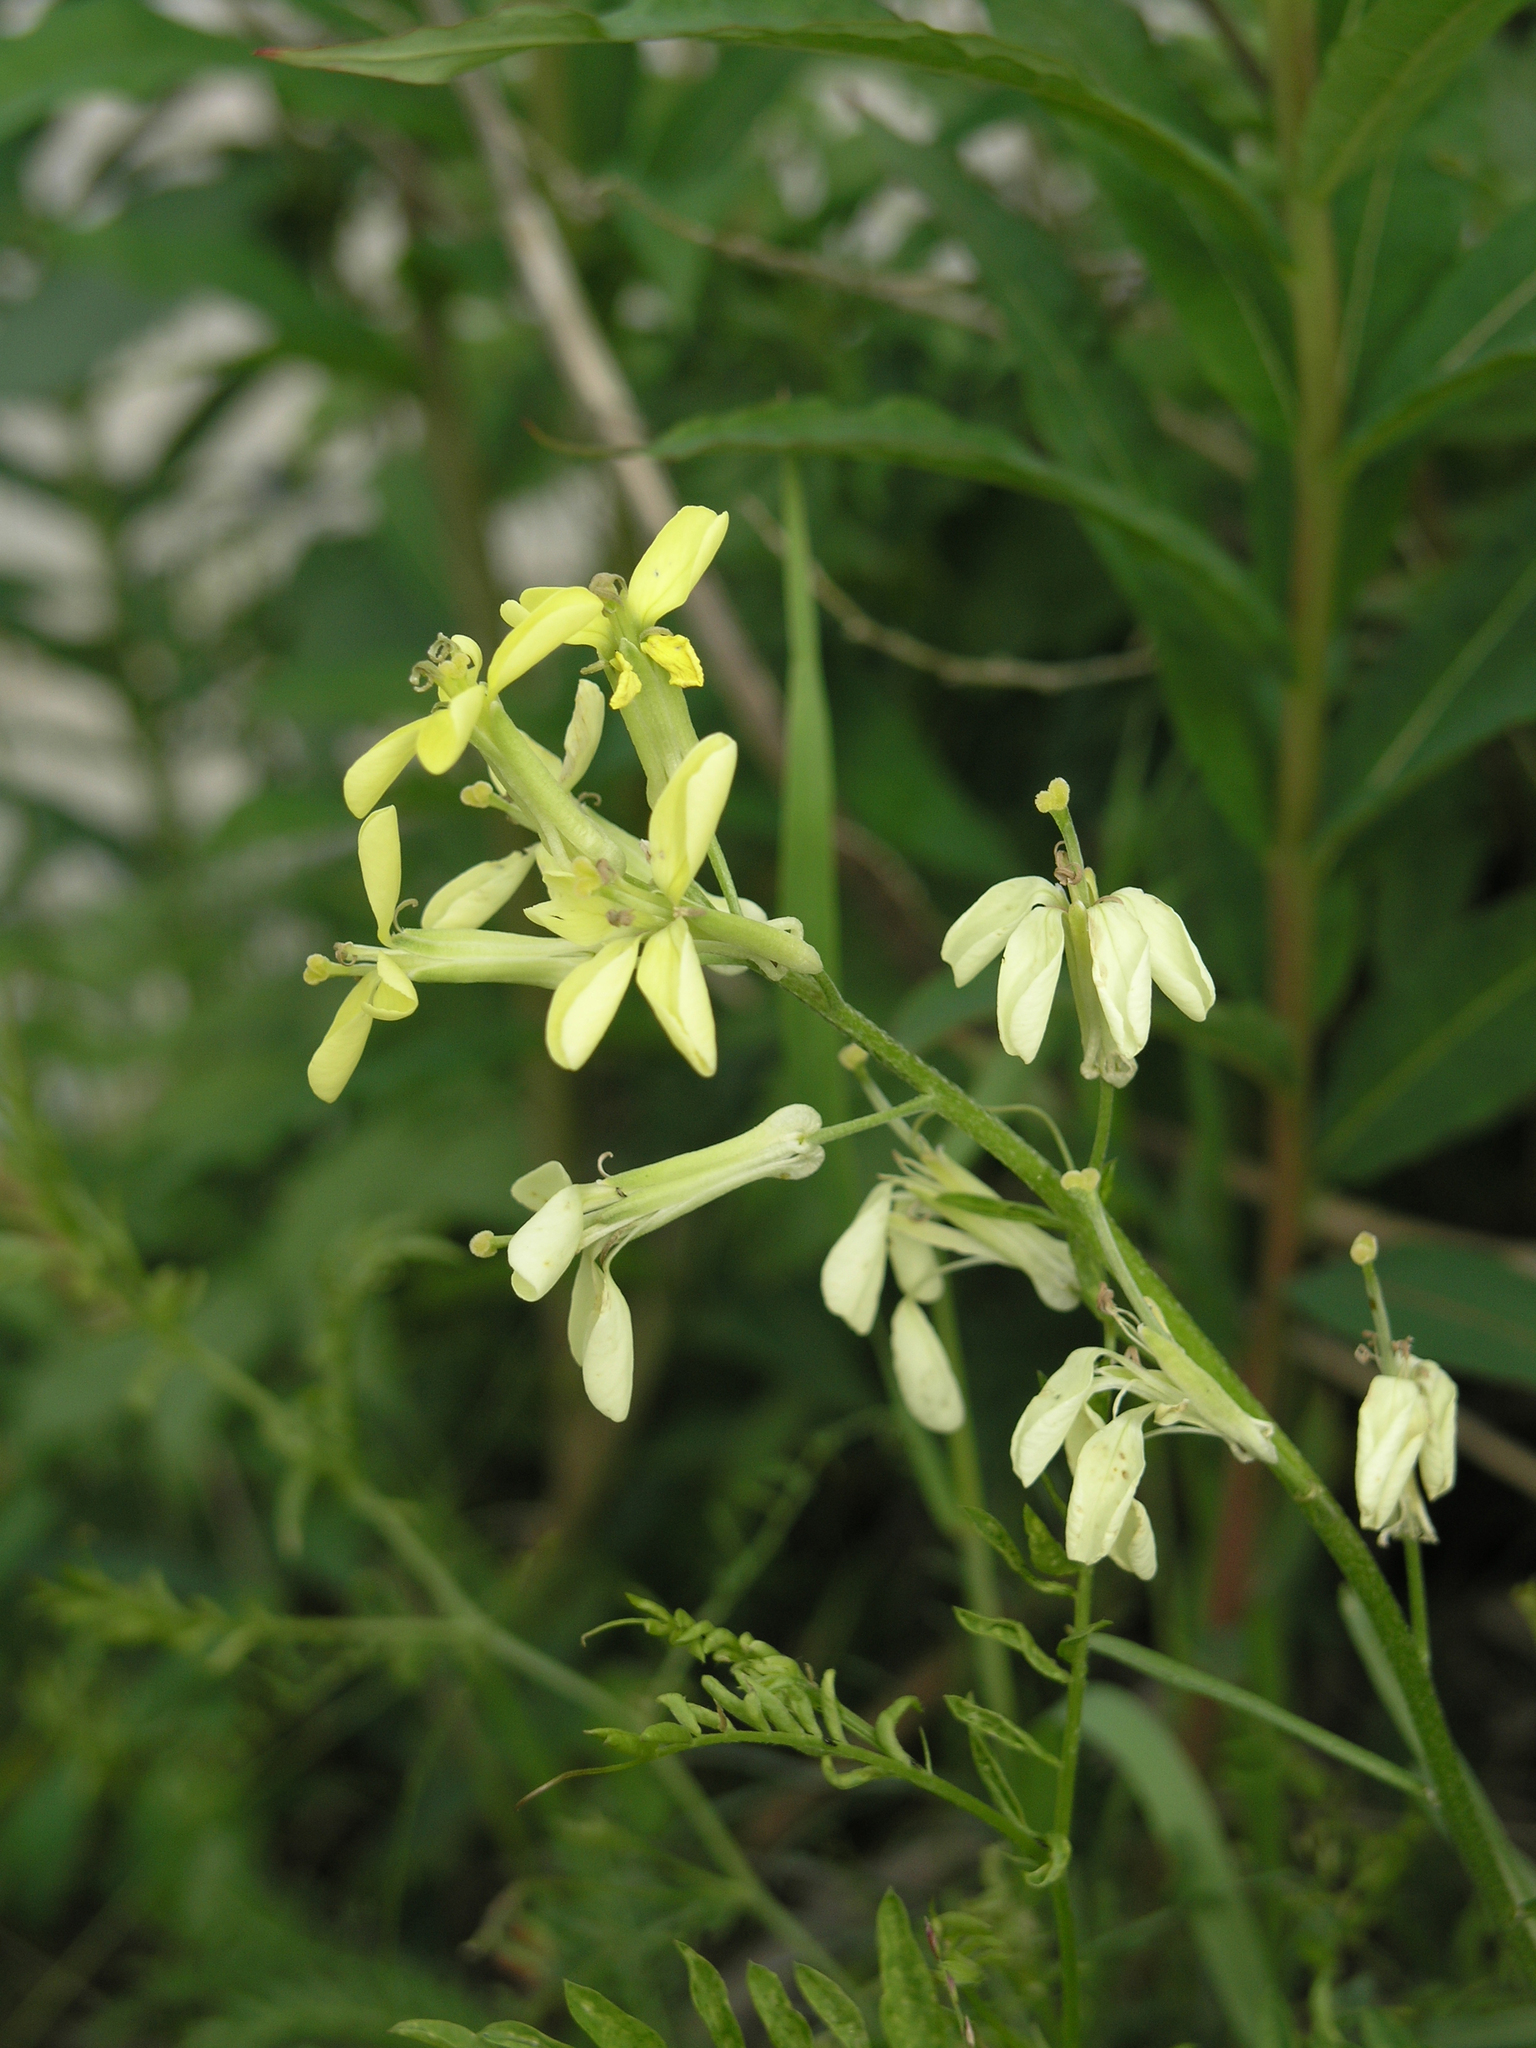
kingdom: Plantae
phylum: Tracheophyta
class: Magnoliopsida
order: Brassicales
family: Brassicaceae
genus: Erysimum
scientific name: Erysimum flavum
